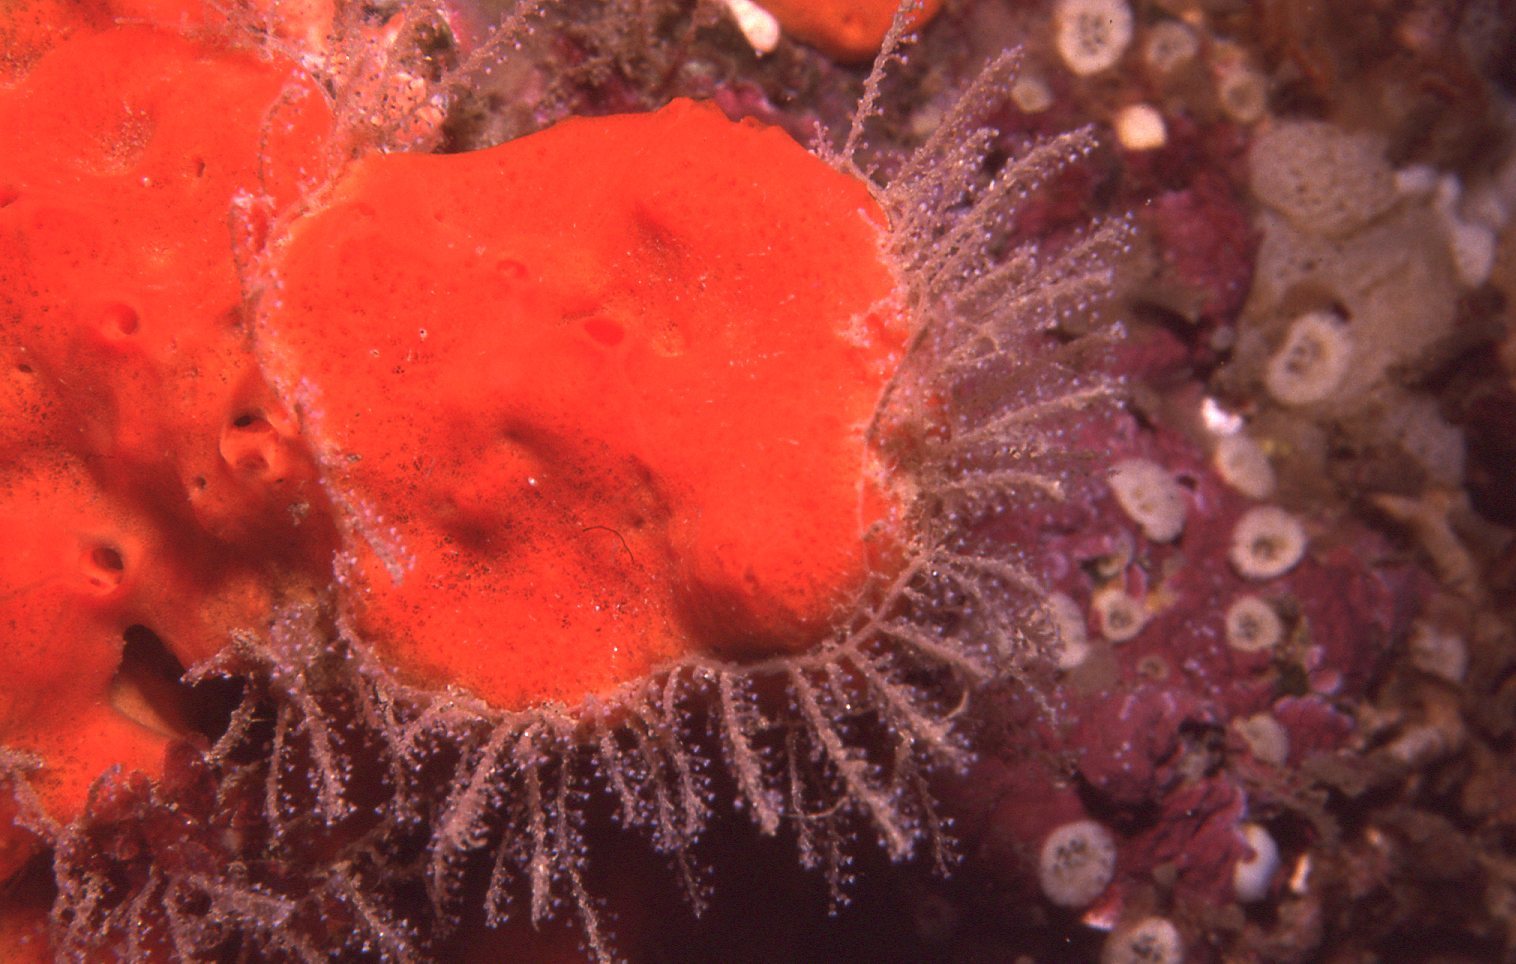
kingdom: Animalia
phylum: Cnidaria
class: Hydrozoa
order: Leptothecata
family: Phylactothecidae
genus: Hydrodendron
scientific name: Hydrodendron australe
